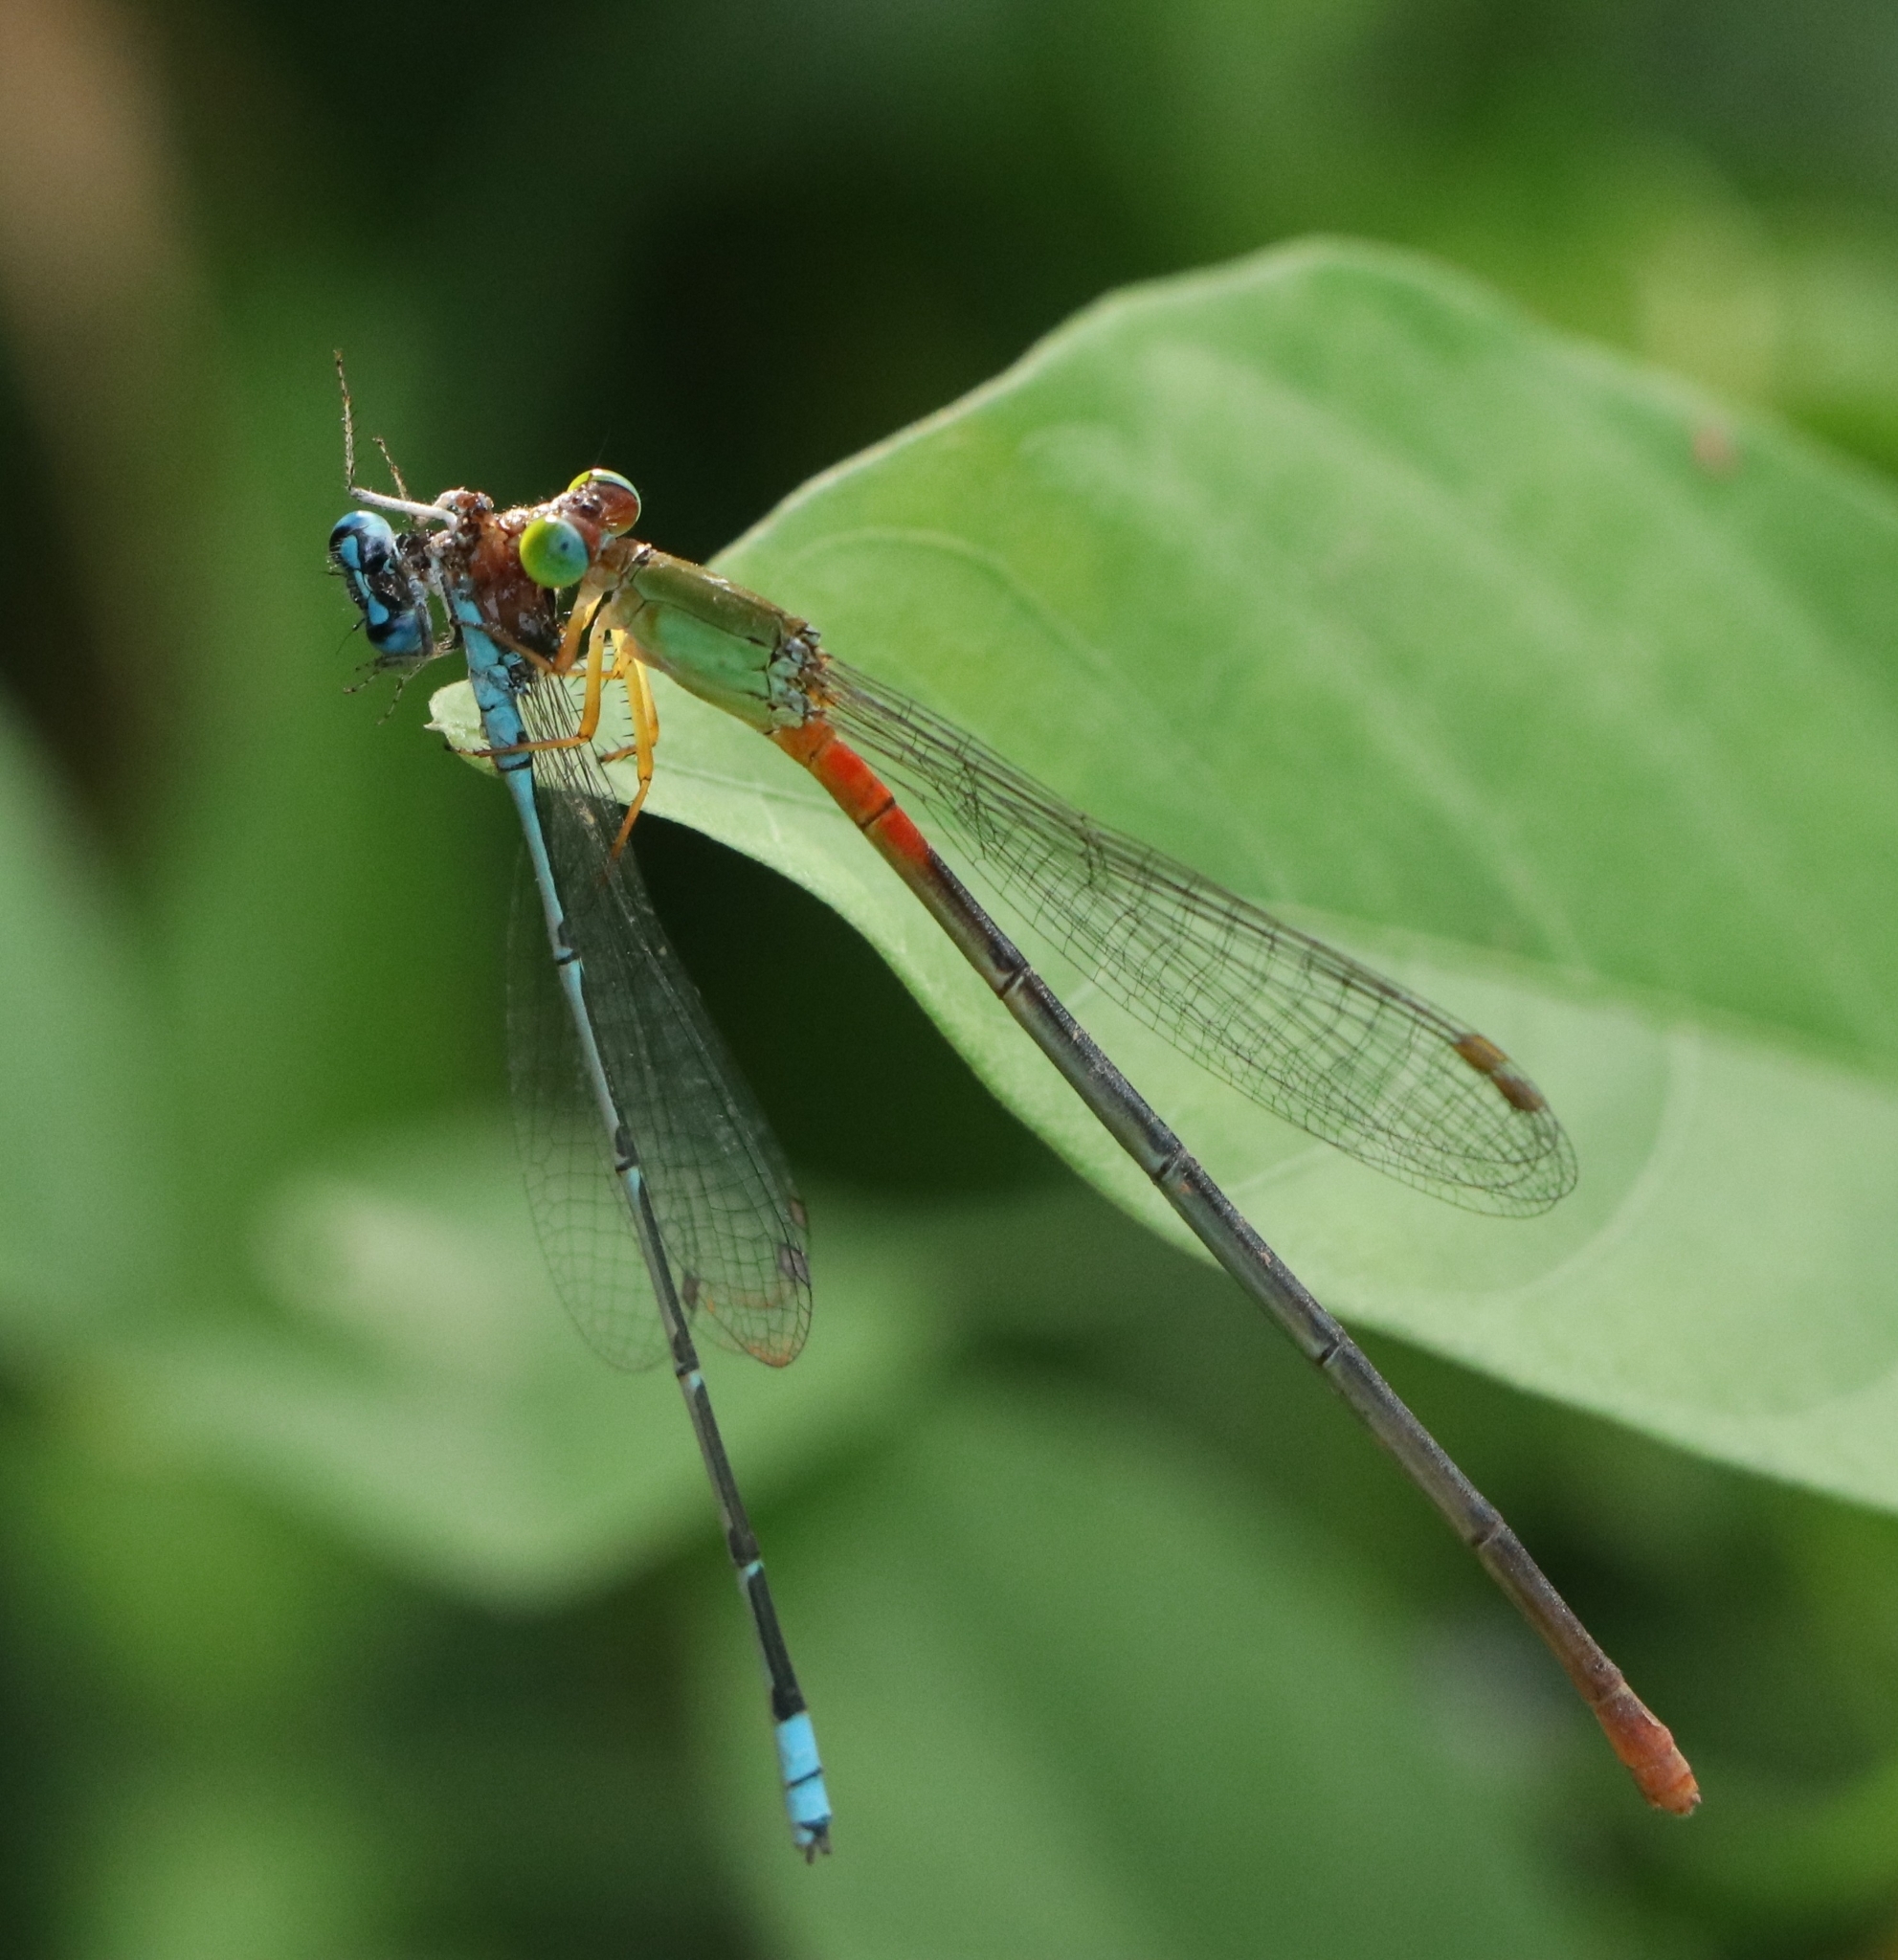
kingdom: Animalia
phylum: Arthropoda
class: Insecta
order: Odonata
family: Coenagrionidae
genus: Ceriagrion
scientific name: Ceriagrion cerinorubellum
